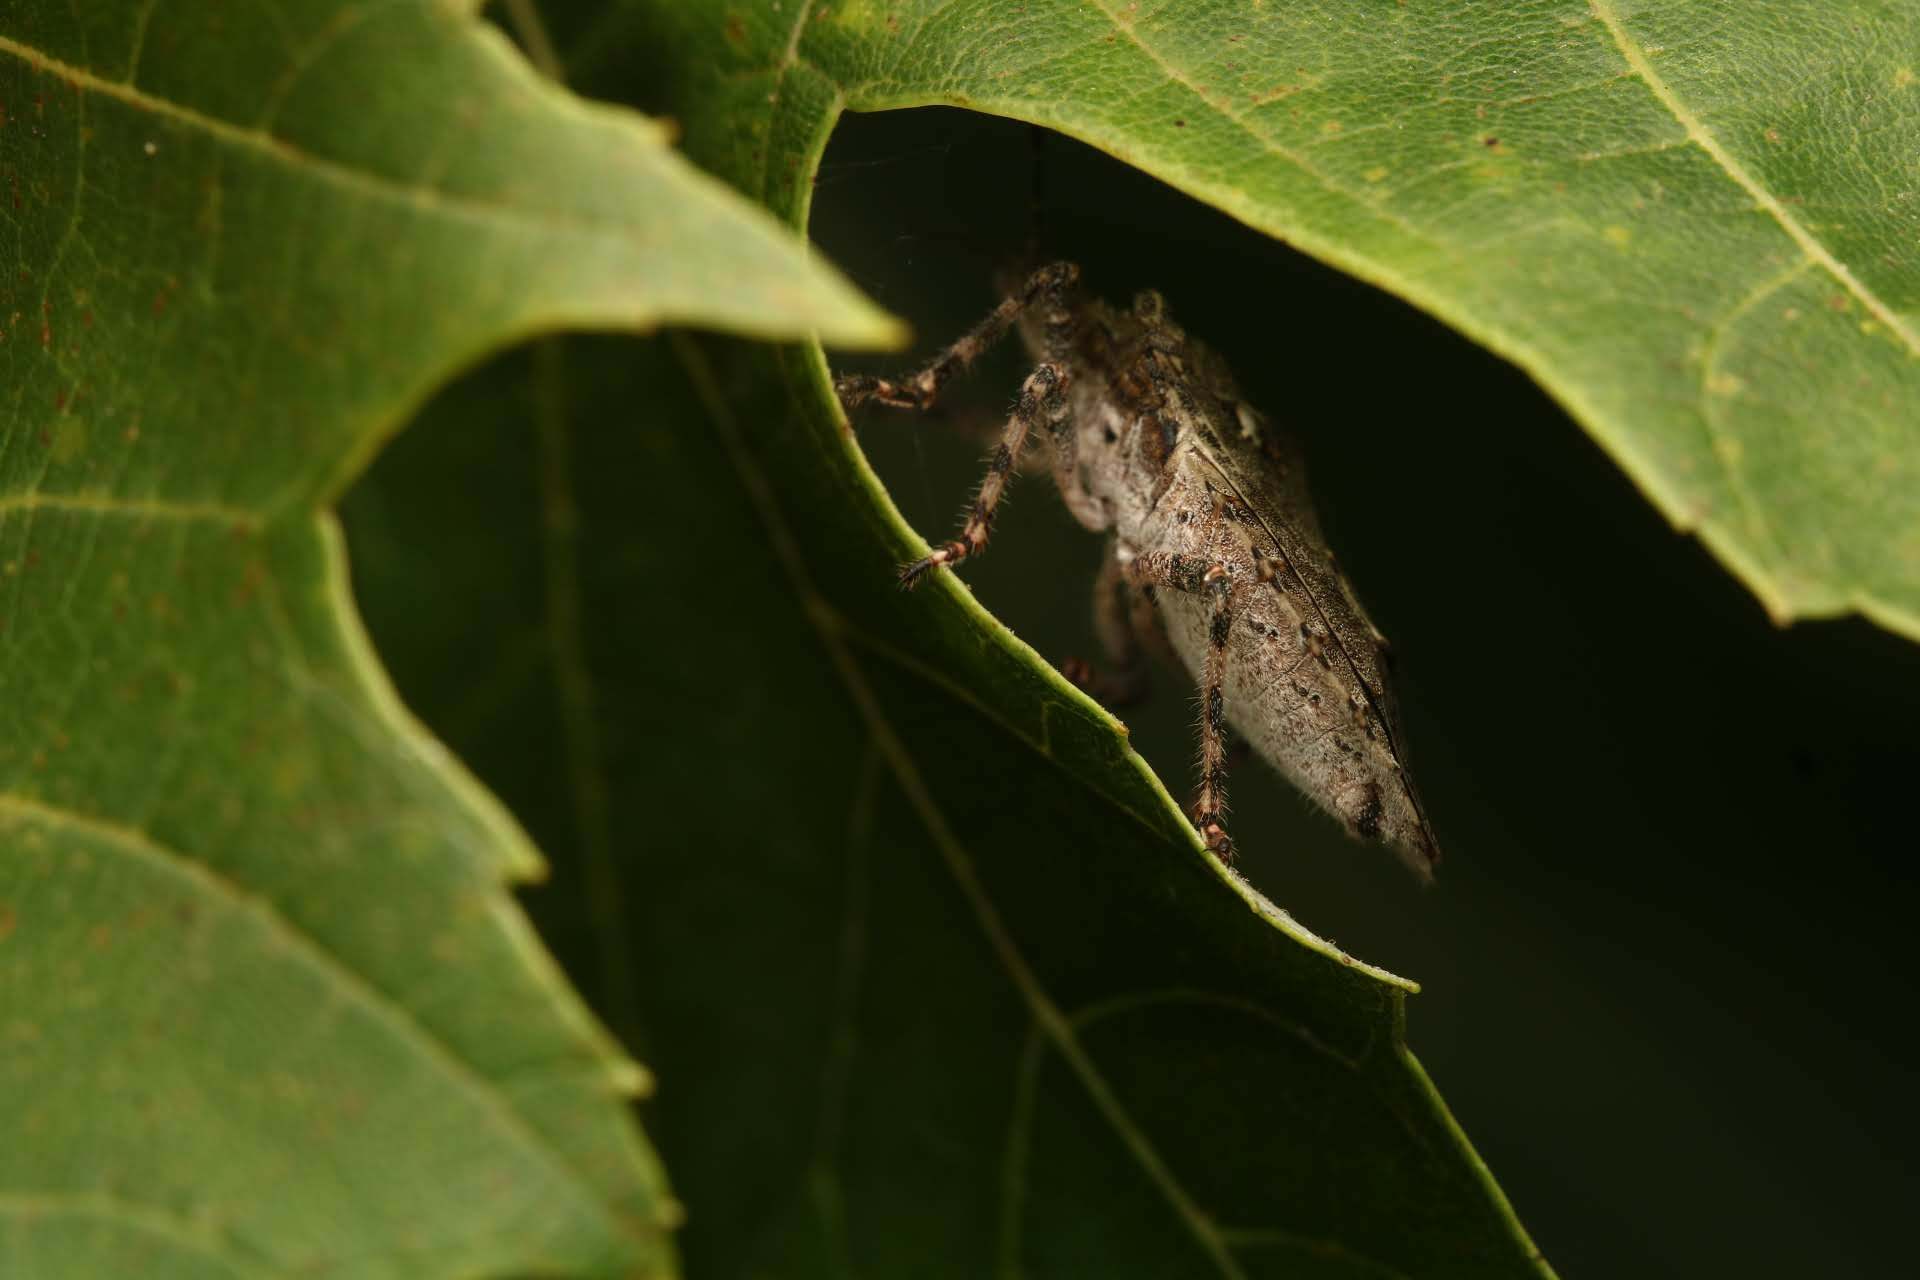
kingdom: Animalia
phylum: Arthropoda
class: Insecta
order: Hemiptera
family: Pentatomidae
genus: Brochymena
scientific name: Brochymena arborea
